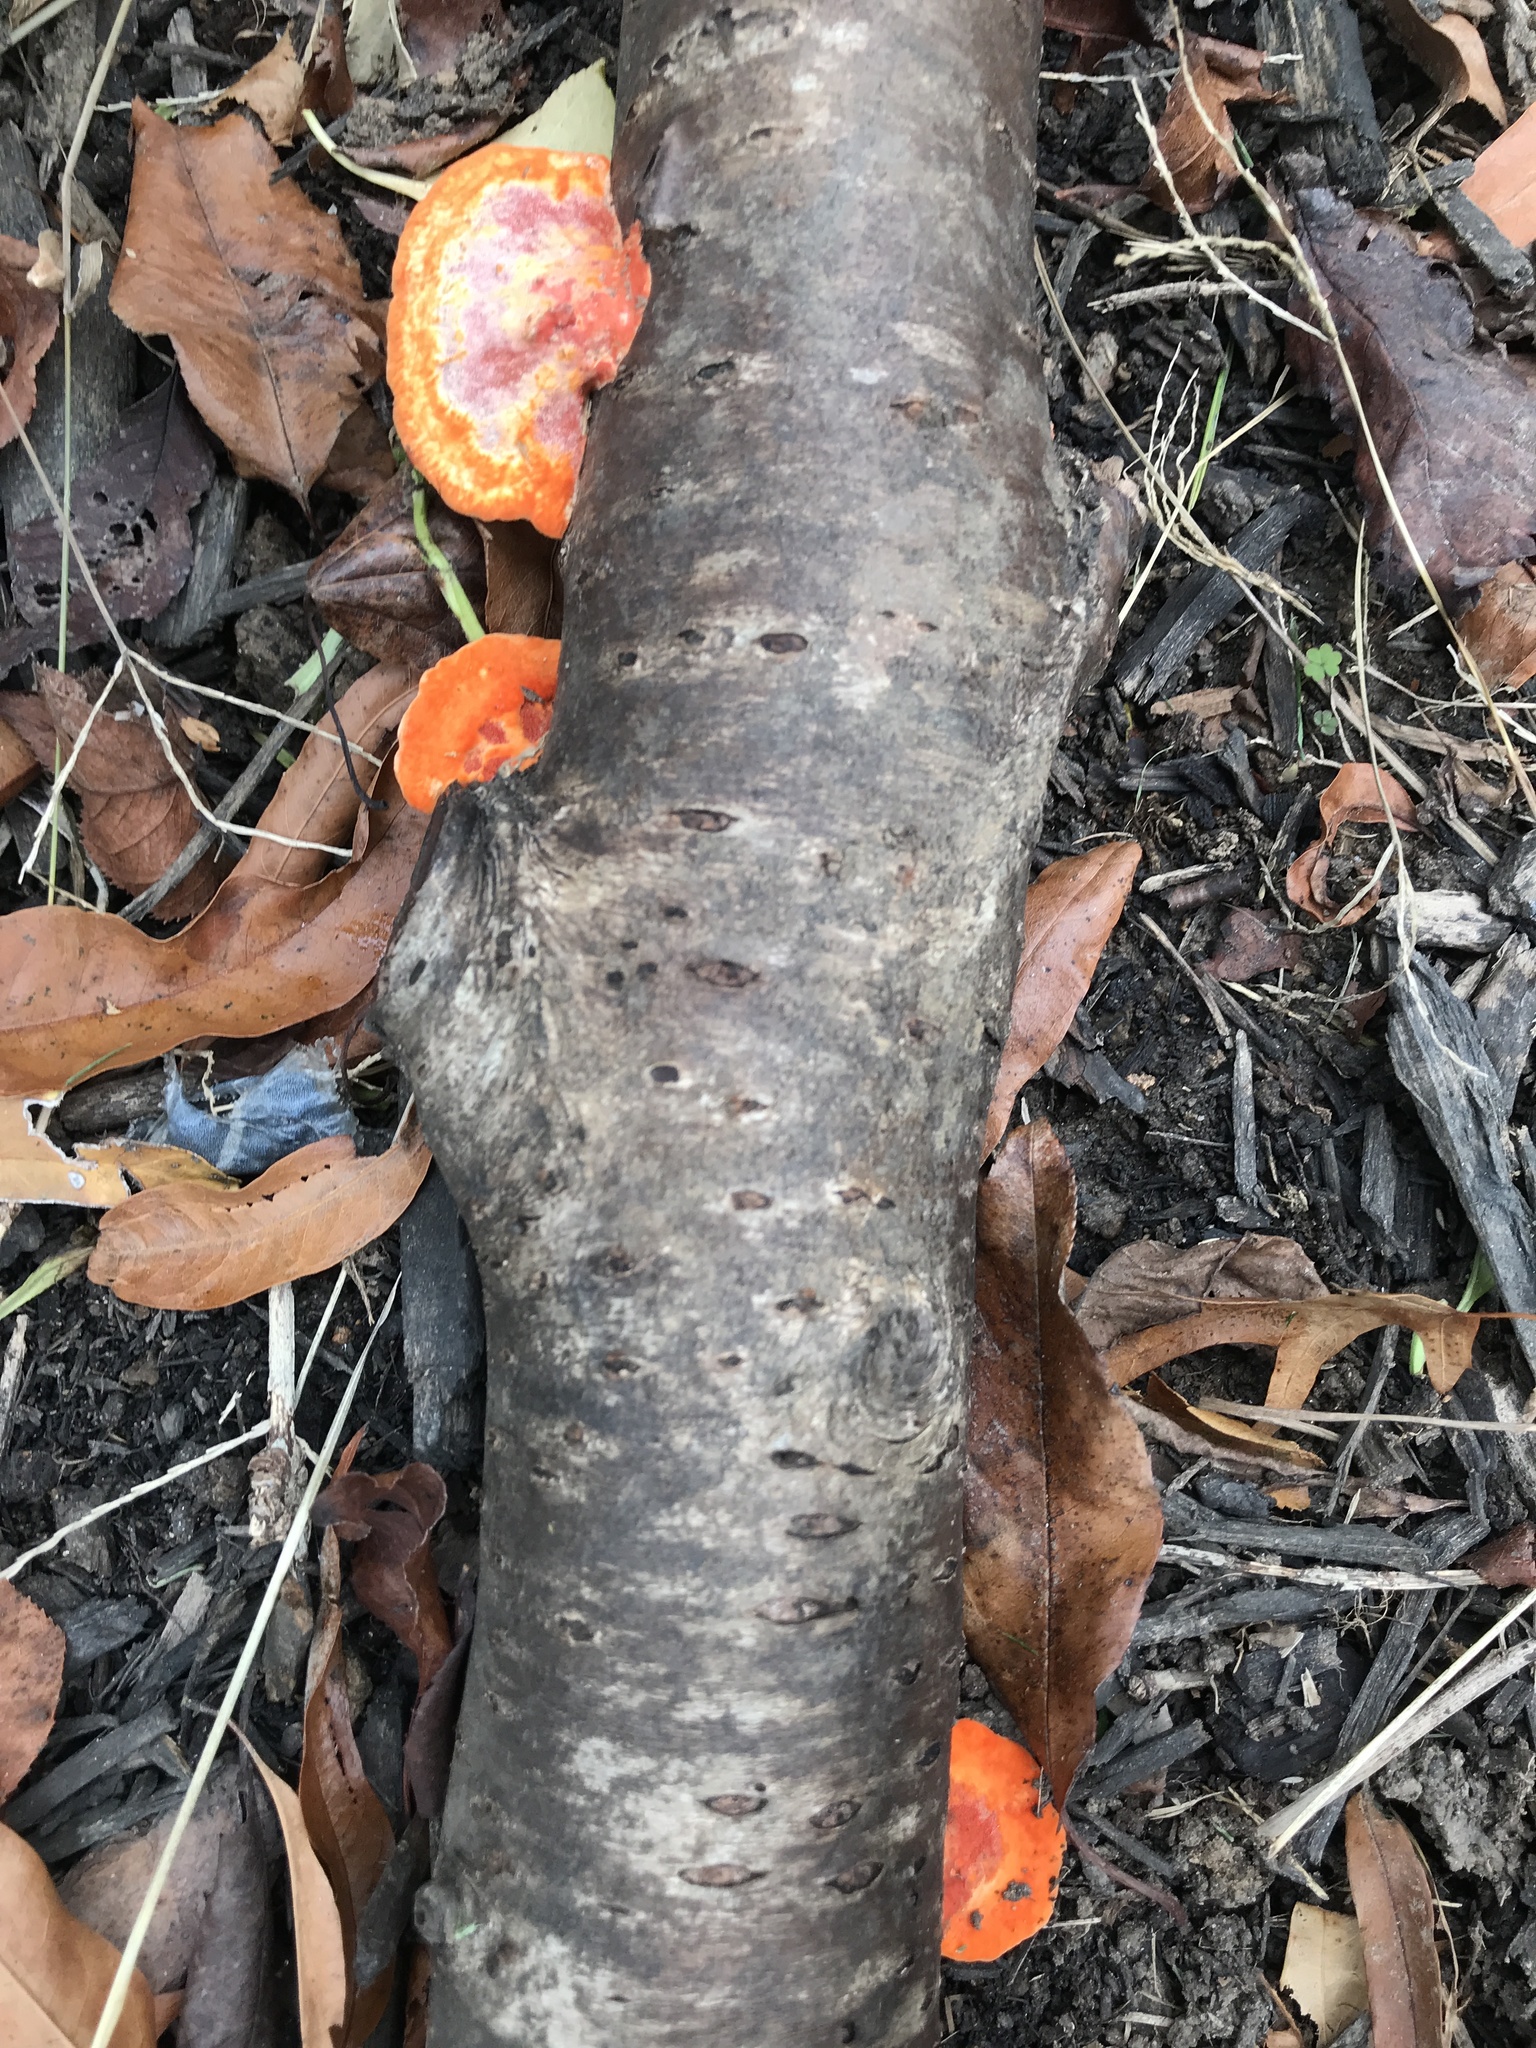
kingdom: Fungi
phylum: Basidiomycota
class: Agaricomycetes
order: Polyporales
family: Polyporaceae
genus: Trametes
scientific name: Trametes cinnabarina
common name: Northern cinnabar polypore
